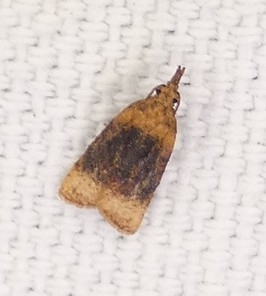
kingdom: Animalia
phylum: Arthropoda
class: Insecta
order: Lepidoptera
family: Tortricidae
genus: Platynota
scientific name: Platynota flavedana
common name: Black-shaded platynota moth
